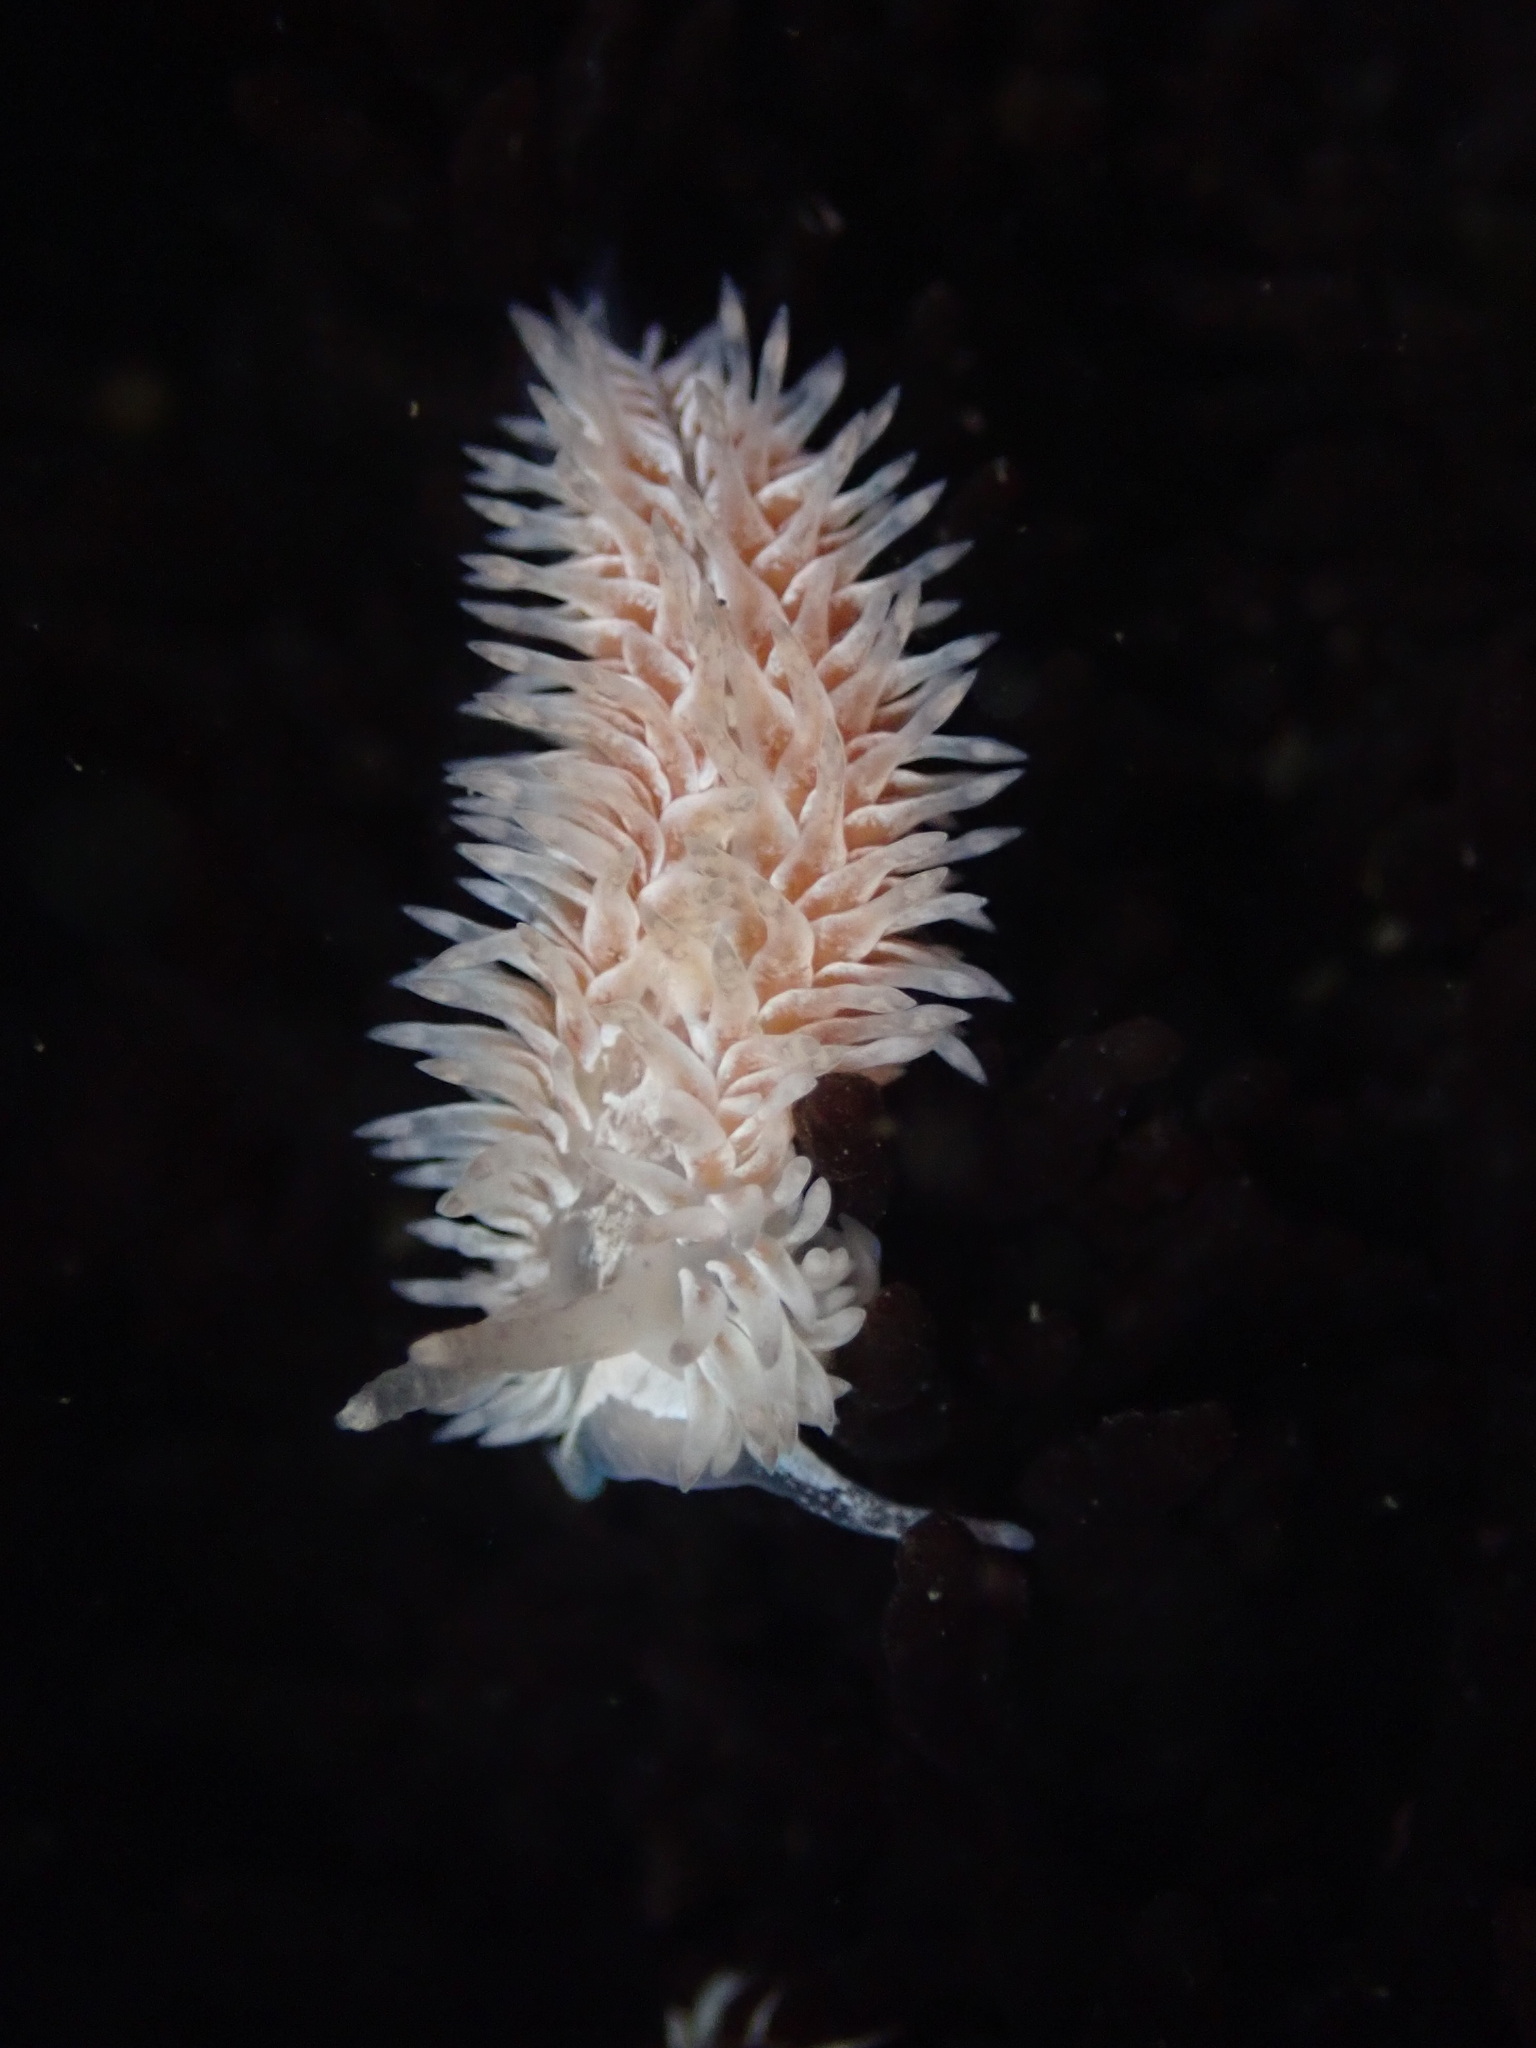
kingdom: Animalia
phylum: Mollusca
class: Gastropoda
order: Nudibranchia
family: Aeolidiidae
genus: Aeolidia
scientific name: Aeolidia loui
